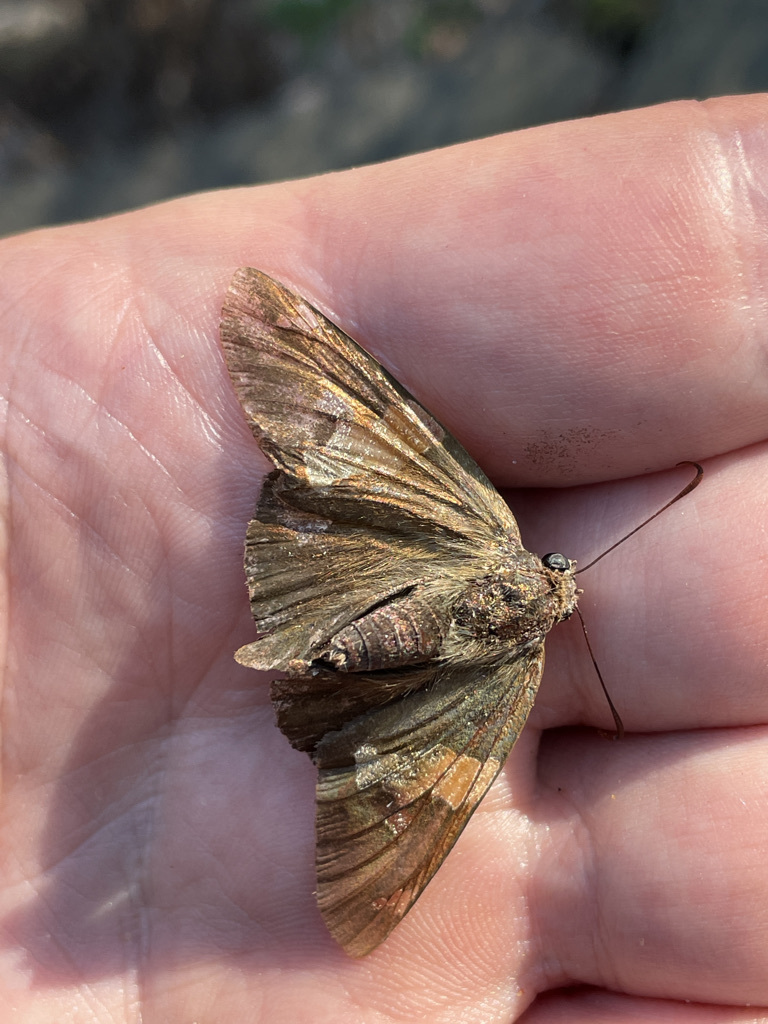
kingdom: Animalia
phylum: Arthropoda
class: Insecta
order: Lepidoptera
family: Hesperiidae
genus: Epargyreus
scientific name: Epargyreus clarus
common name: Silver-spotted skipper
